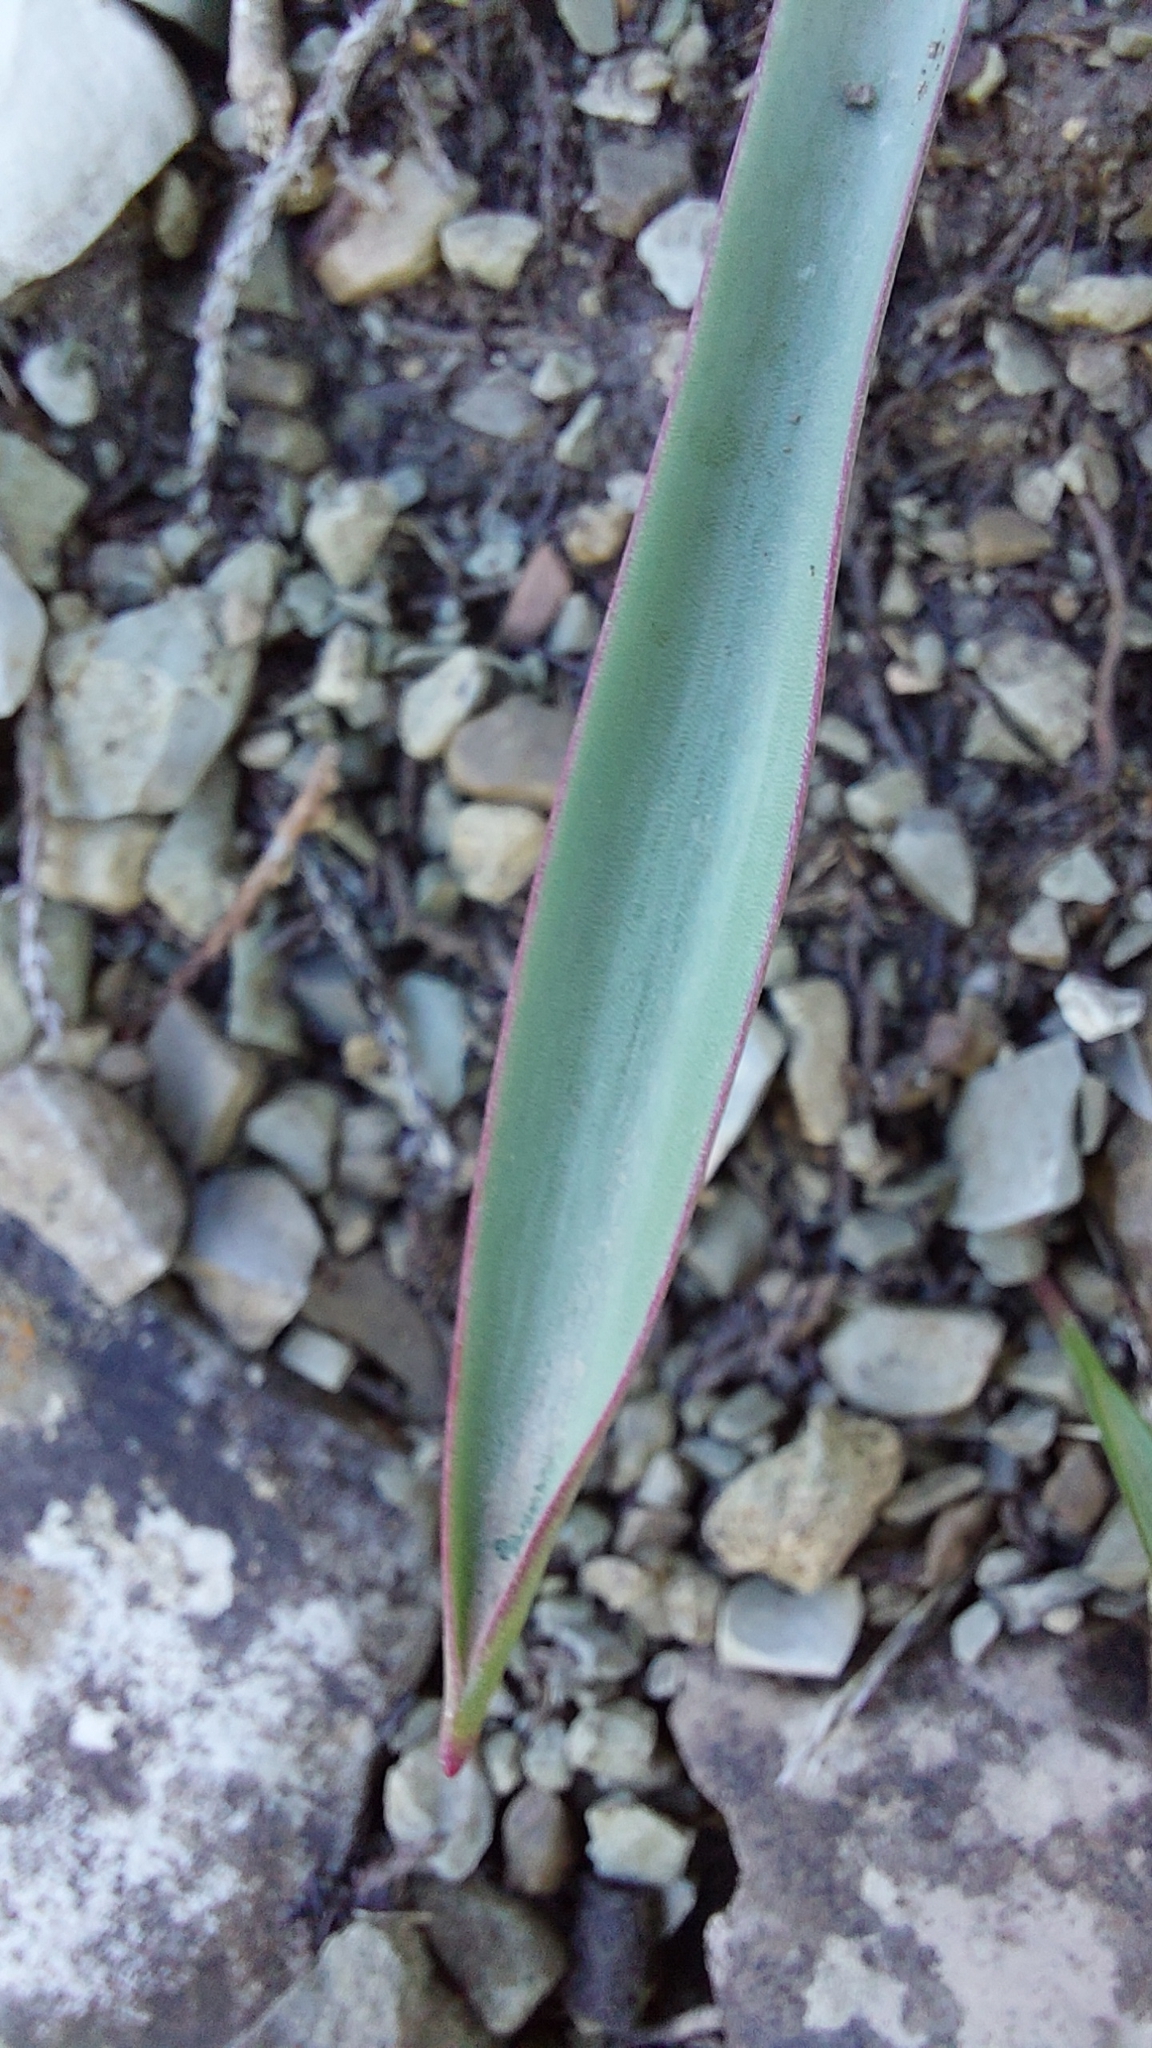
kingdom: Plantae
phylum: Tracheophyta
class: Liliopsida
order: Liliales
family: Liliaceae
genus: Tulipa
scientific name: Tulipa sylvestris
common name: Wild tulip
